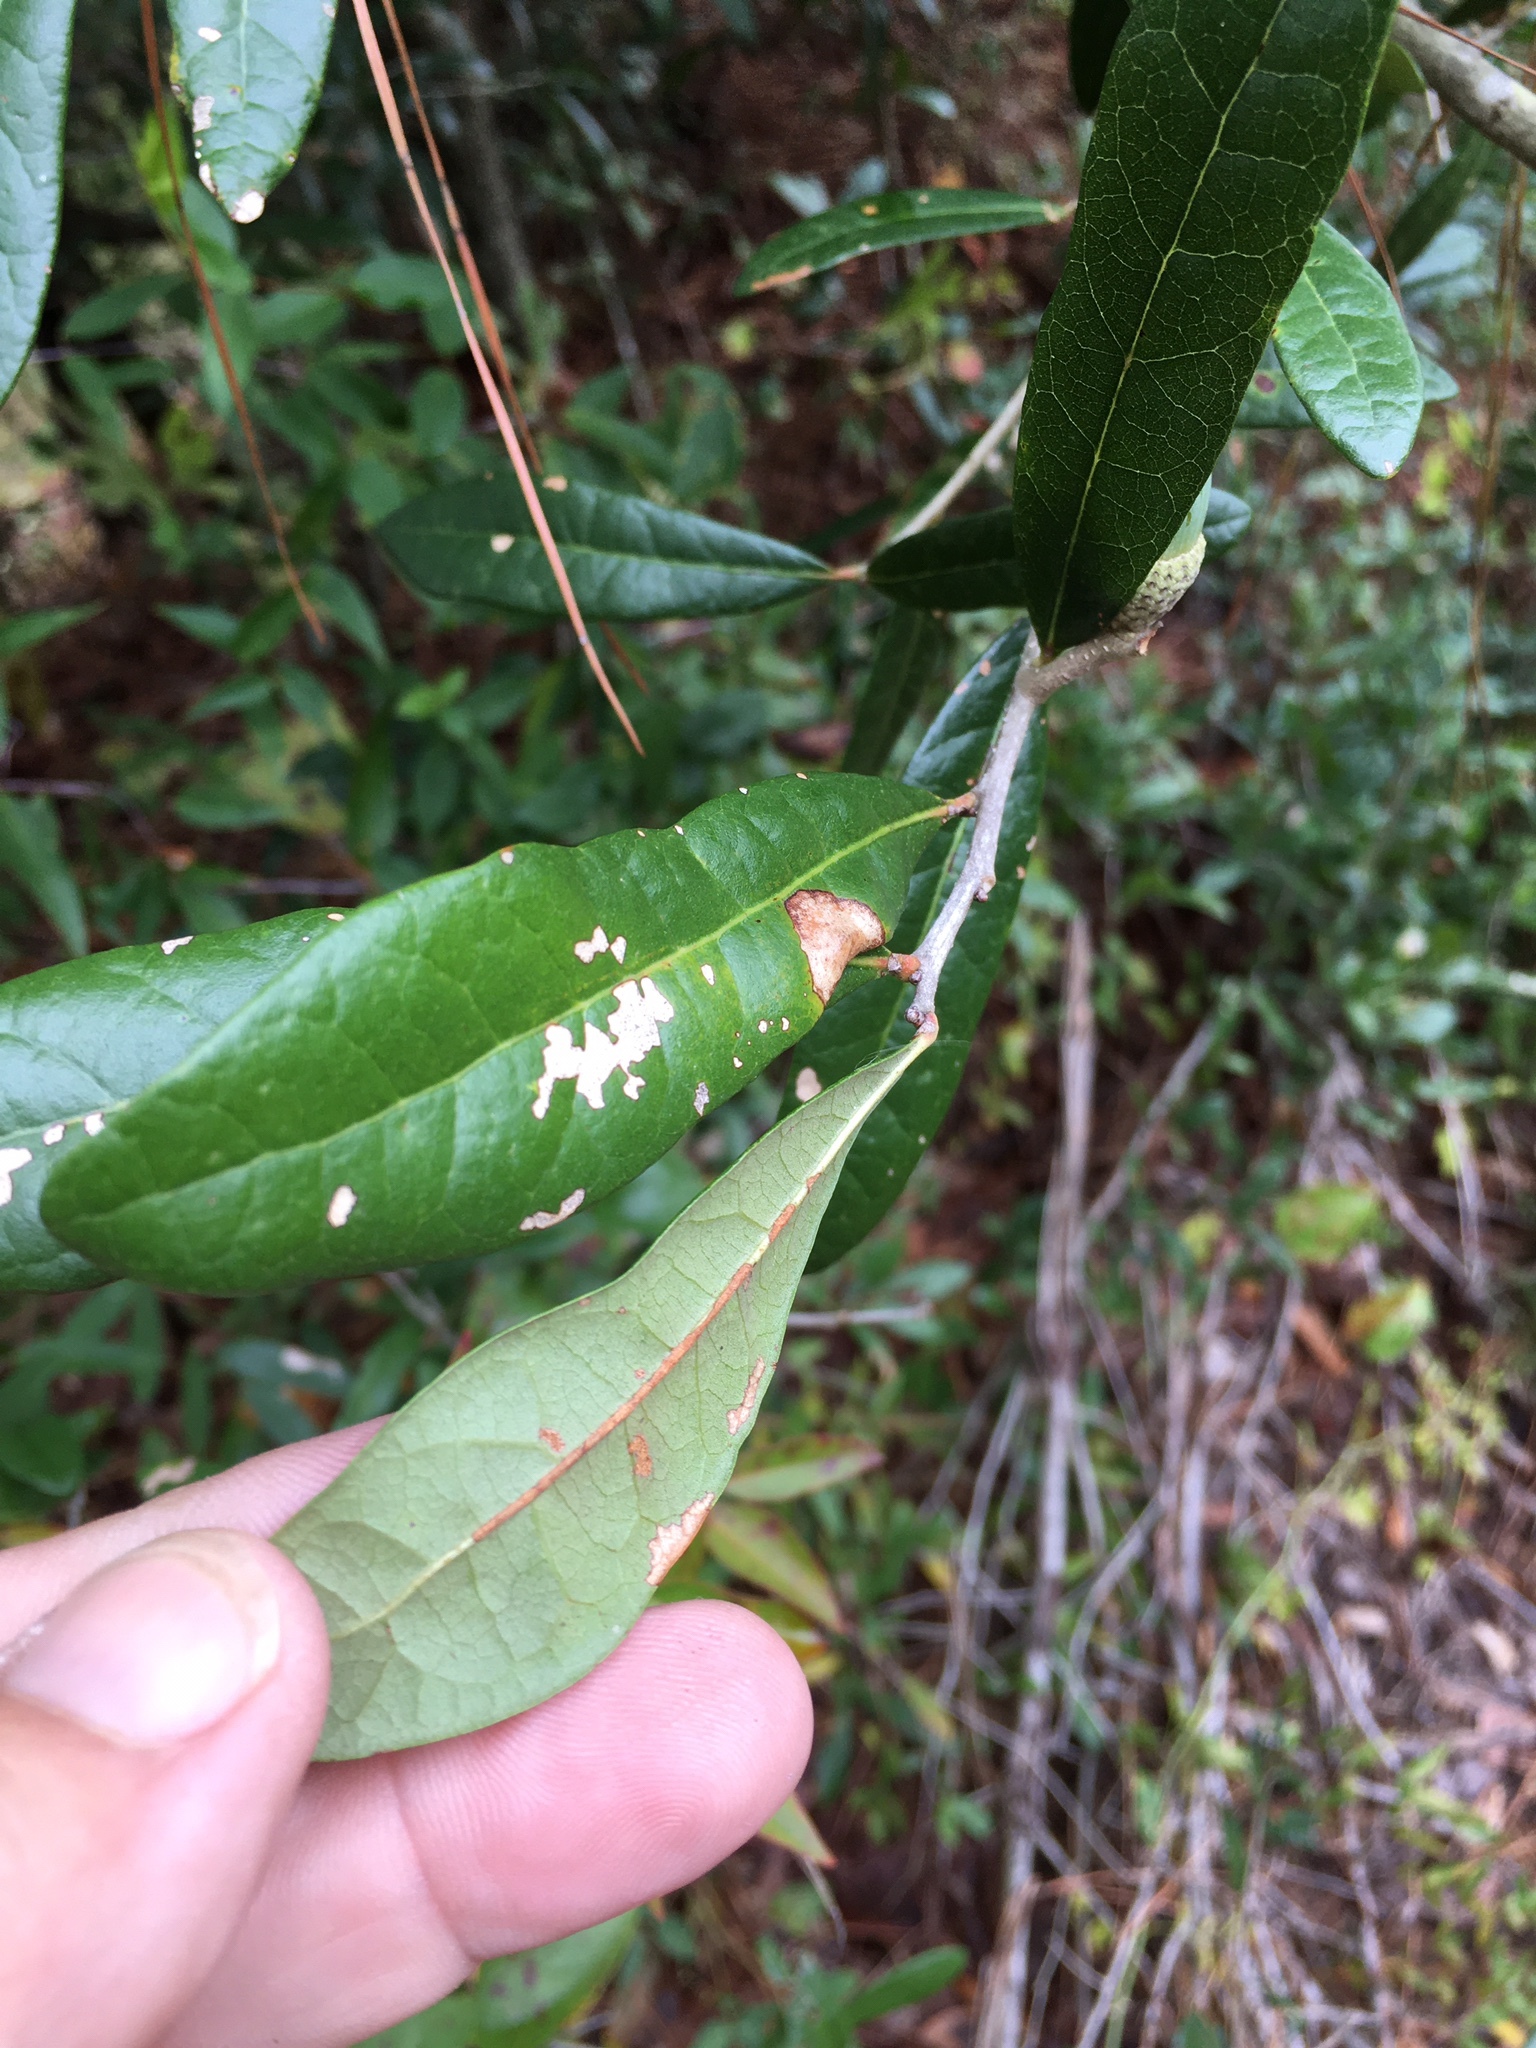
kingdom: Plantae
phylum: Tracheophyta
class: Magnoliopsida
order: Fagales
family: Fagaceae
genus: Quercus
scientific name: Quercus virginiana
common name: Southern live oak
